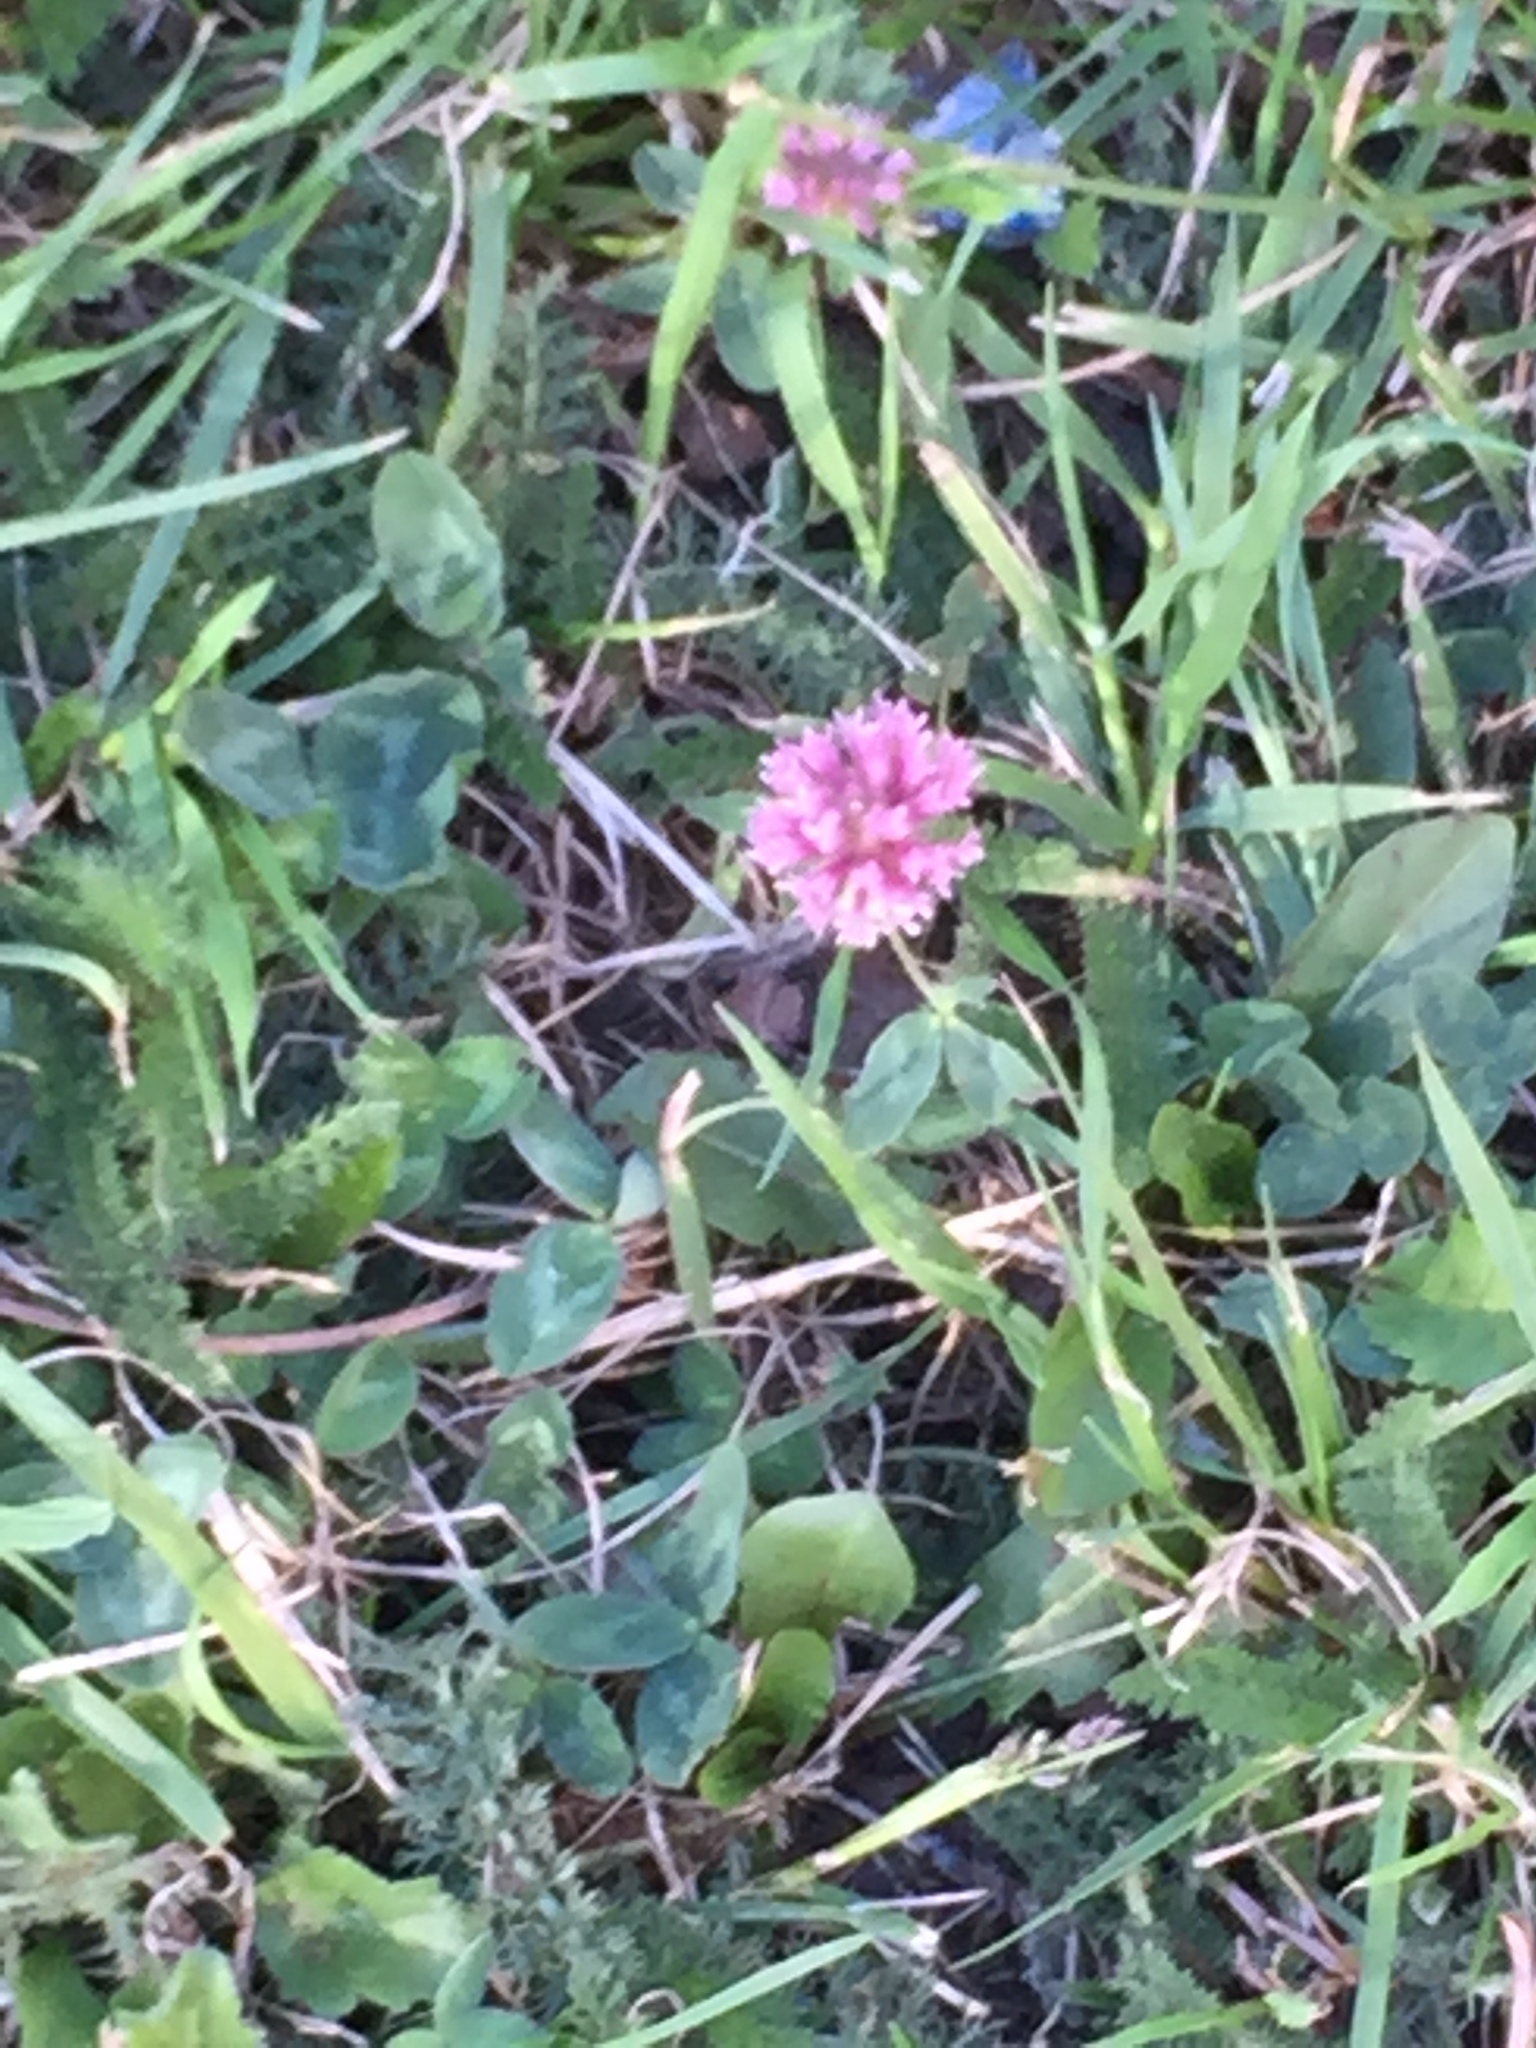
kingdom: Plantae
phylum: Tracheophyta
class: Magnoliopsida
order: Fabales
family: Fabaceae
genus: Trifolium
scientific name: Trifolium pratense
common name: Red clover
